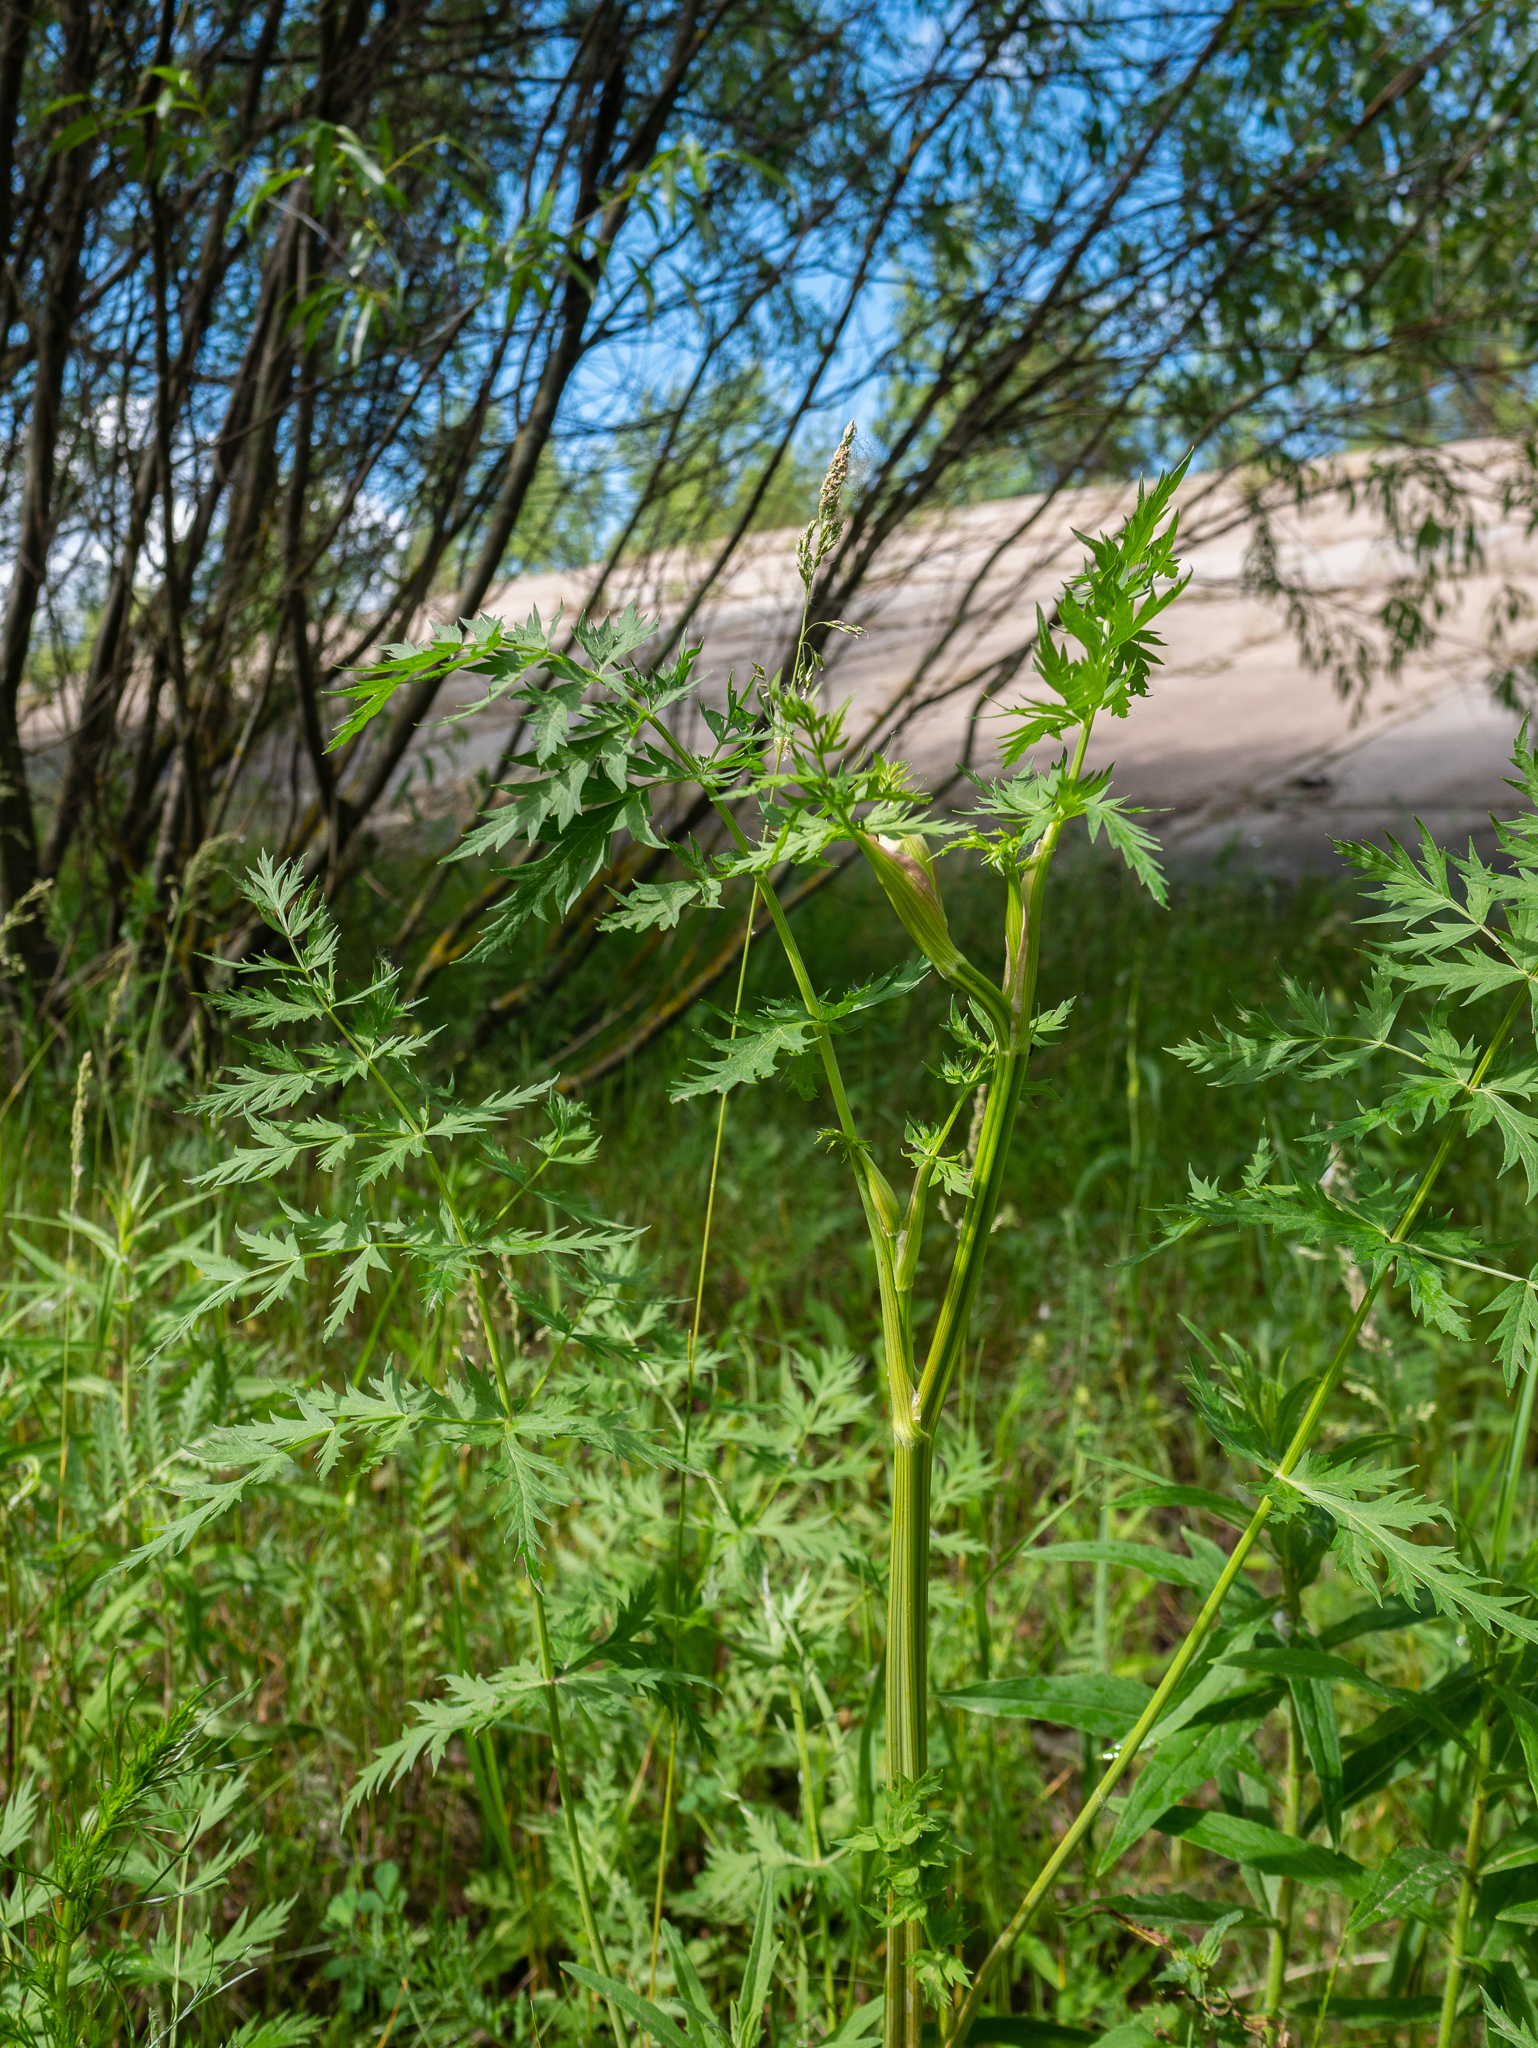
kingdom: Plantae
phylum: Tracheophyta
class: Magnoliopsida
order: Apiales
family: Apiaceae
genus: Seseli
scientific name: Seseli libanotis
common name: Mooncarrot
